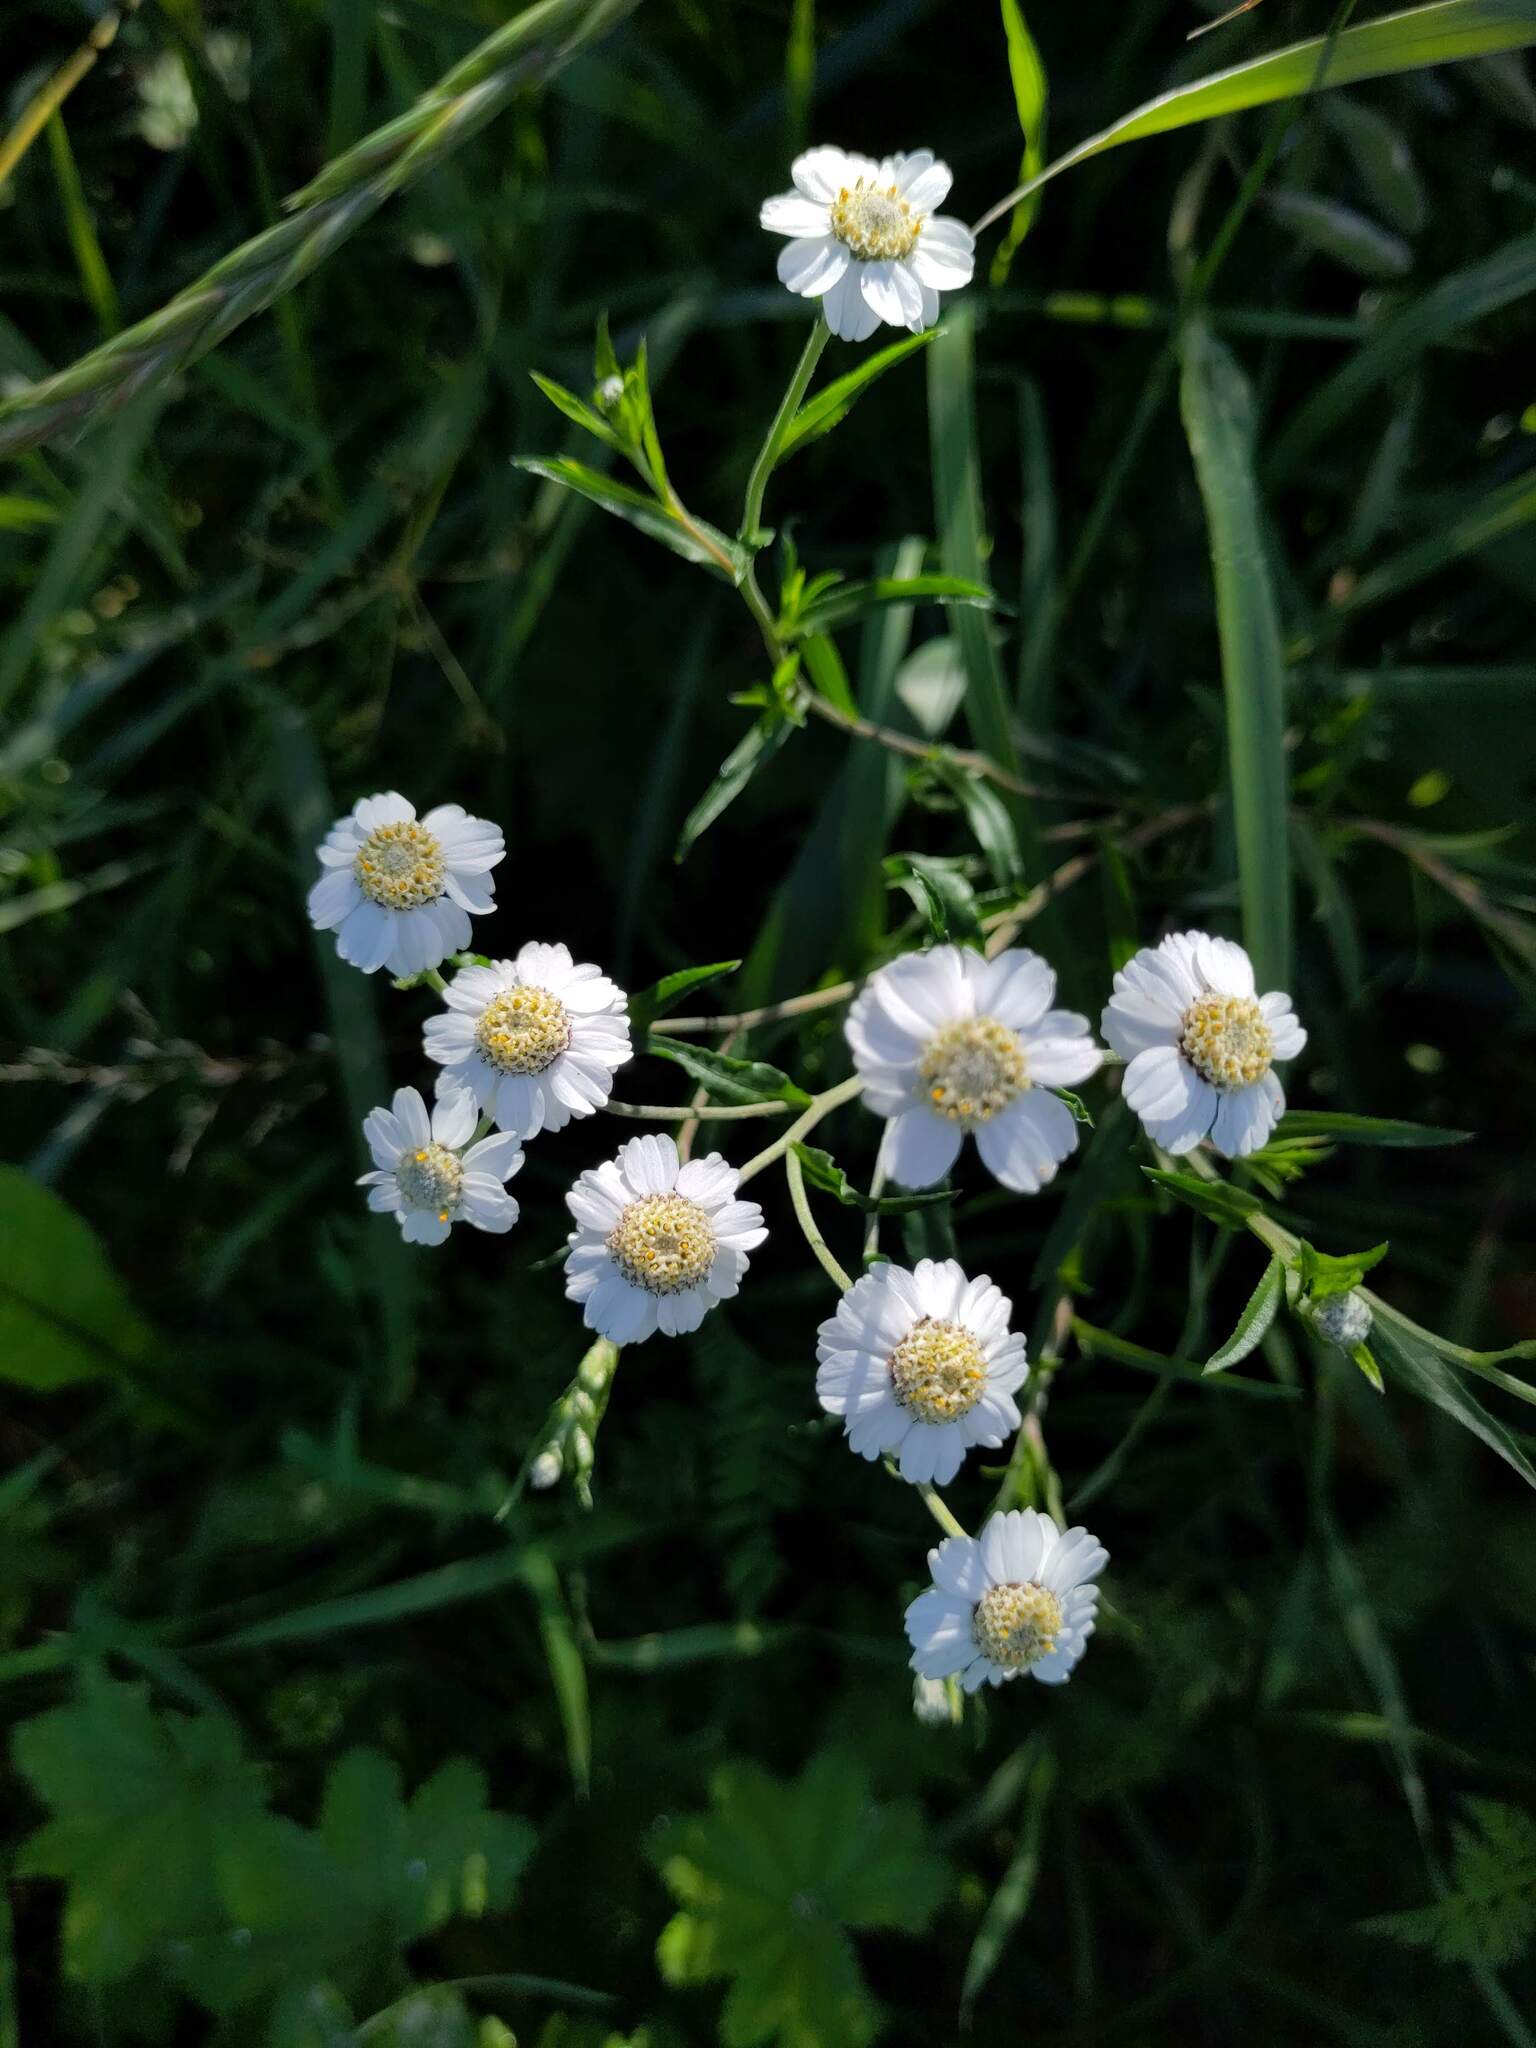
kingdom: Plantae
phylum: Tracheophyta
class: Magnoliopsida
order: Asterales
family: Asteraceae
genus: Achillea
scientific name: Achillea ptarmica
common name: Sneezeweed
